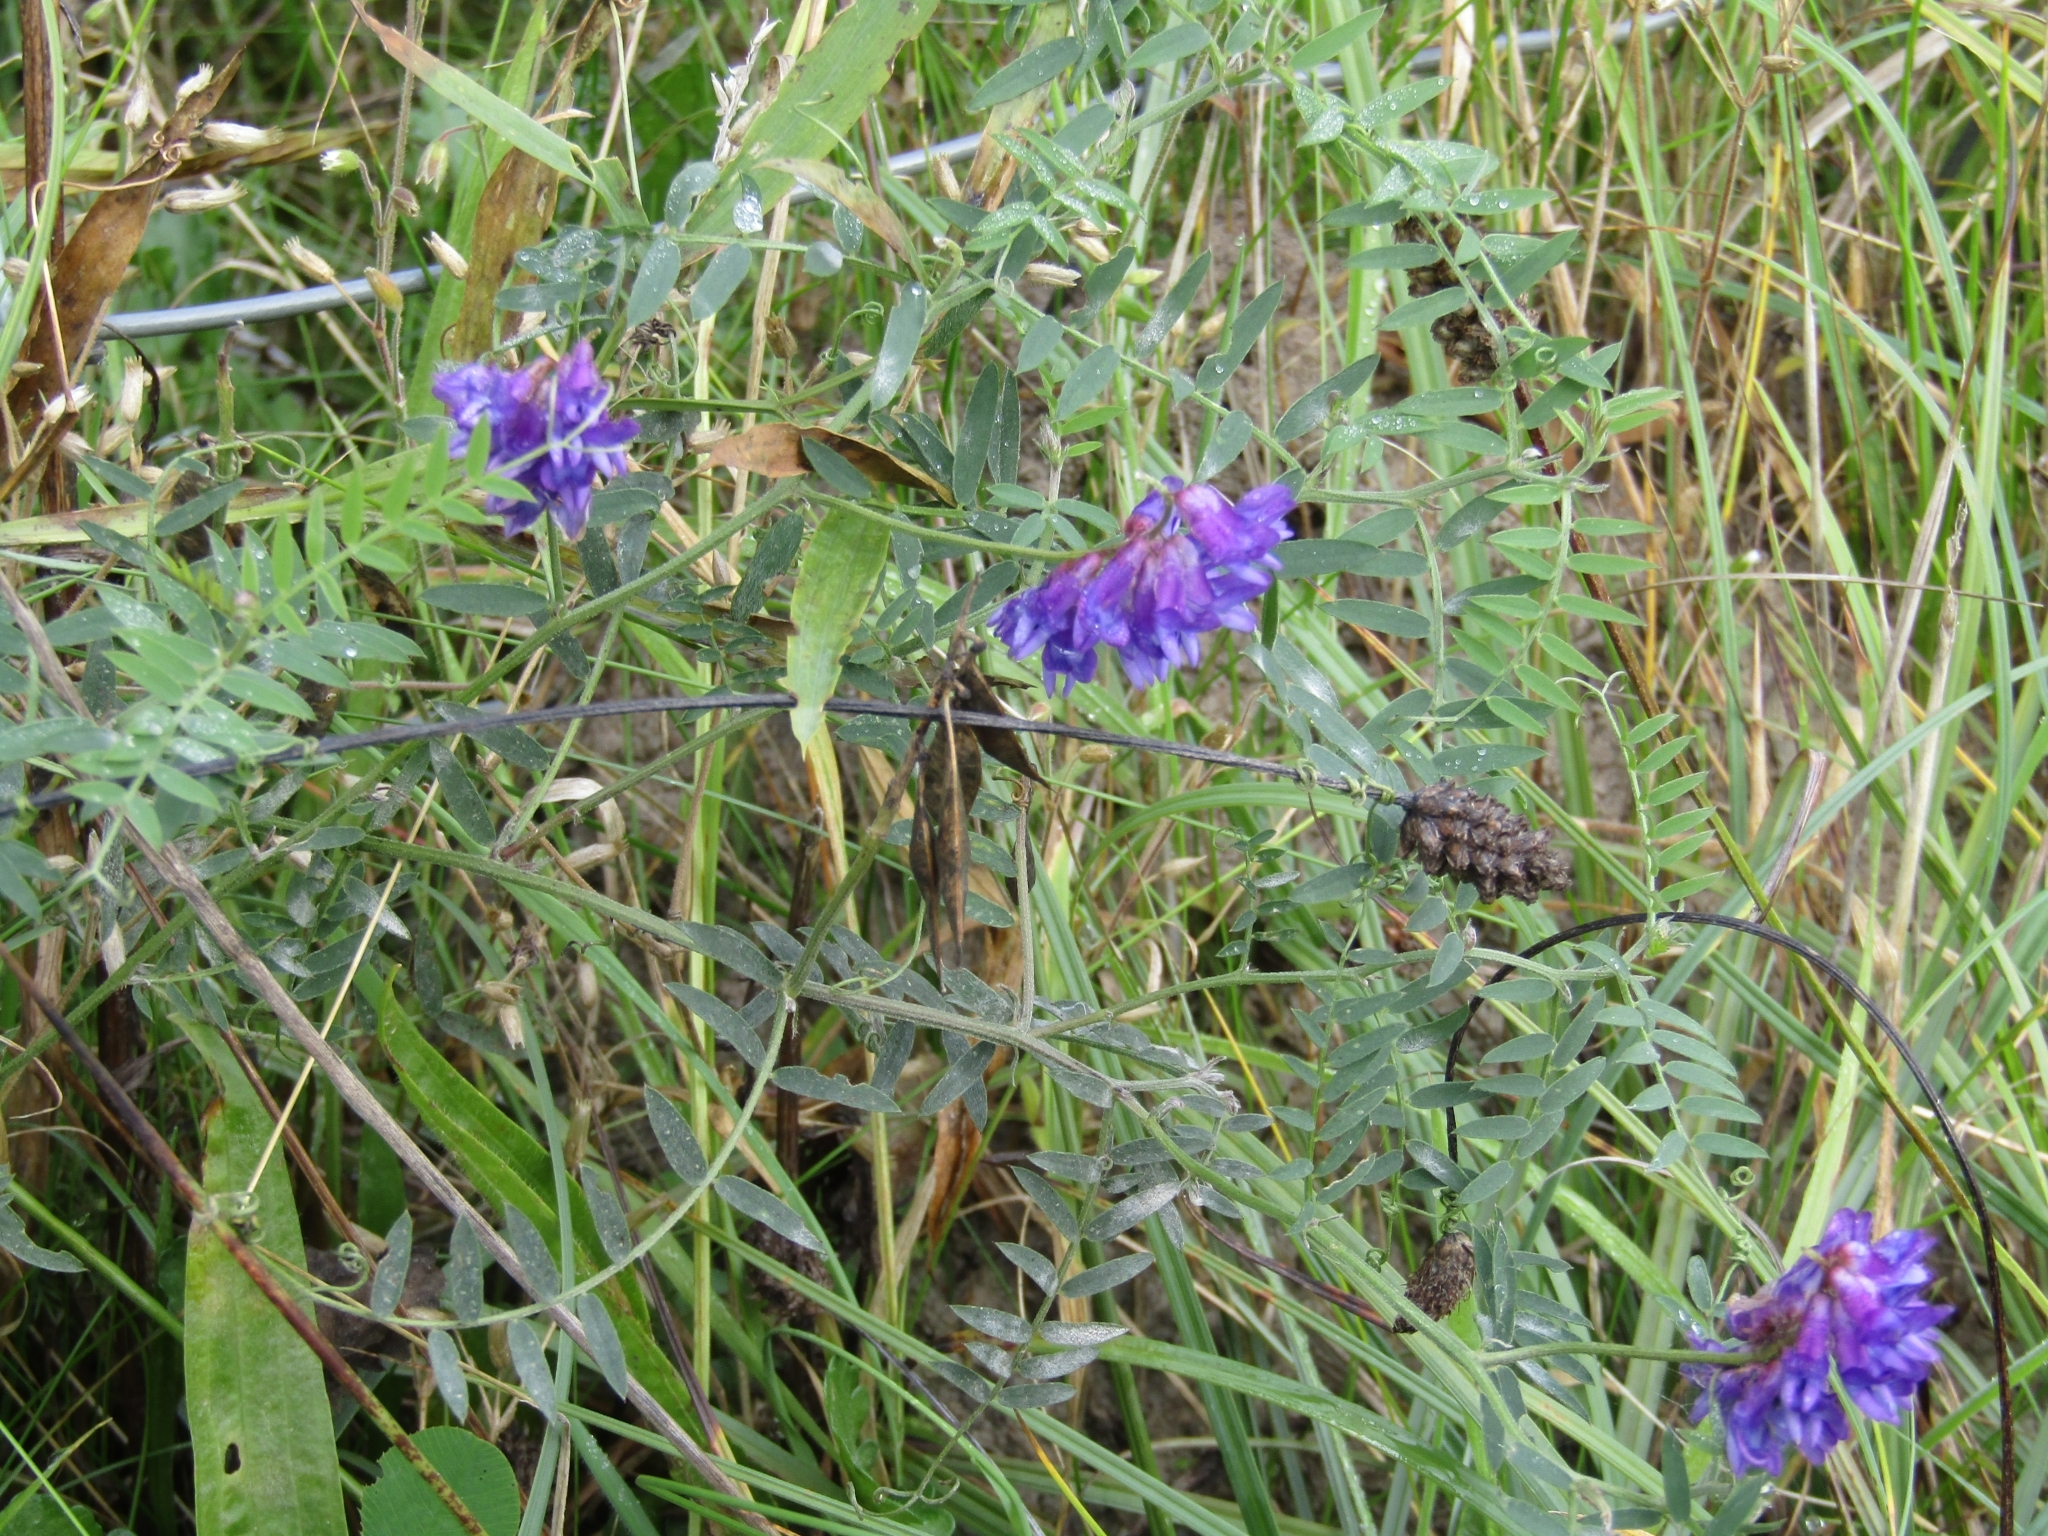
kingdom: Plantae
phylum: Tracheophyta
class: Magnoliopsida
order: Fabales
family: Fabaceae
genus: Vicia
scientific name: Vicia cracca
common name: Bird vetch
